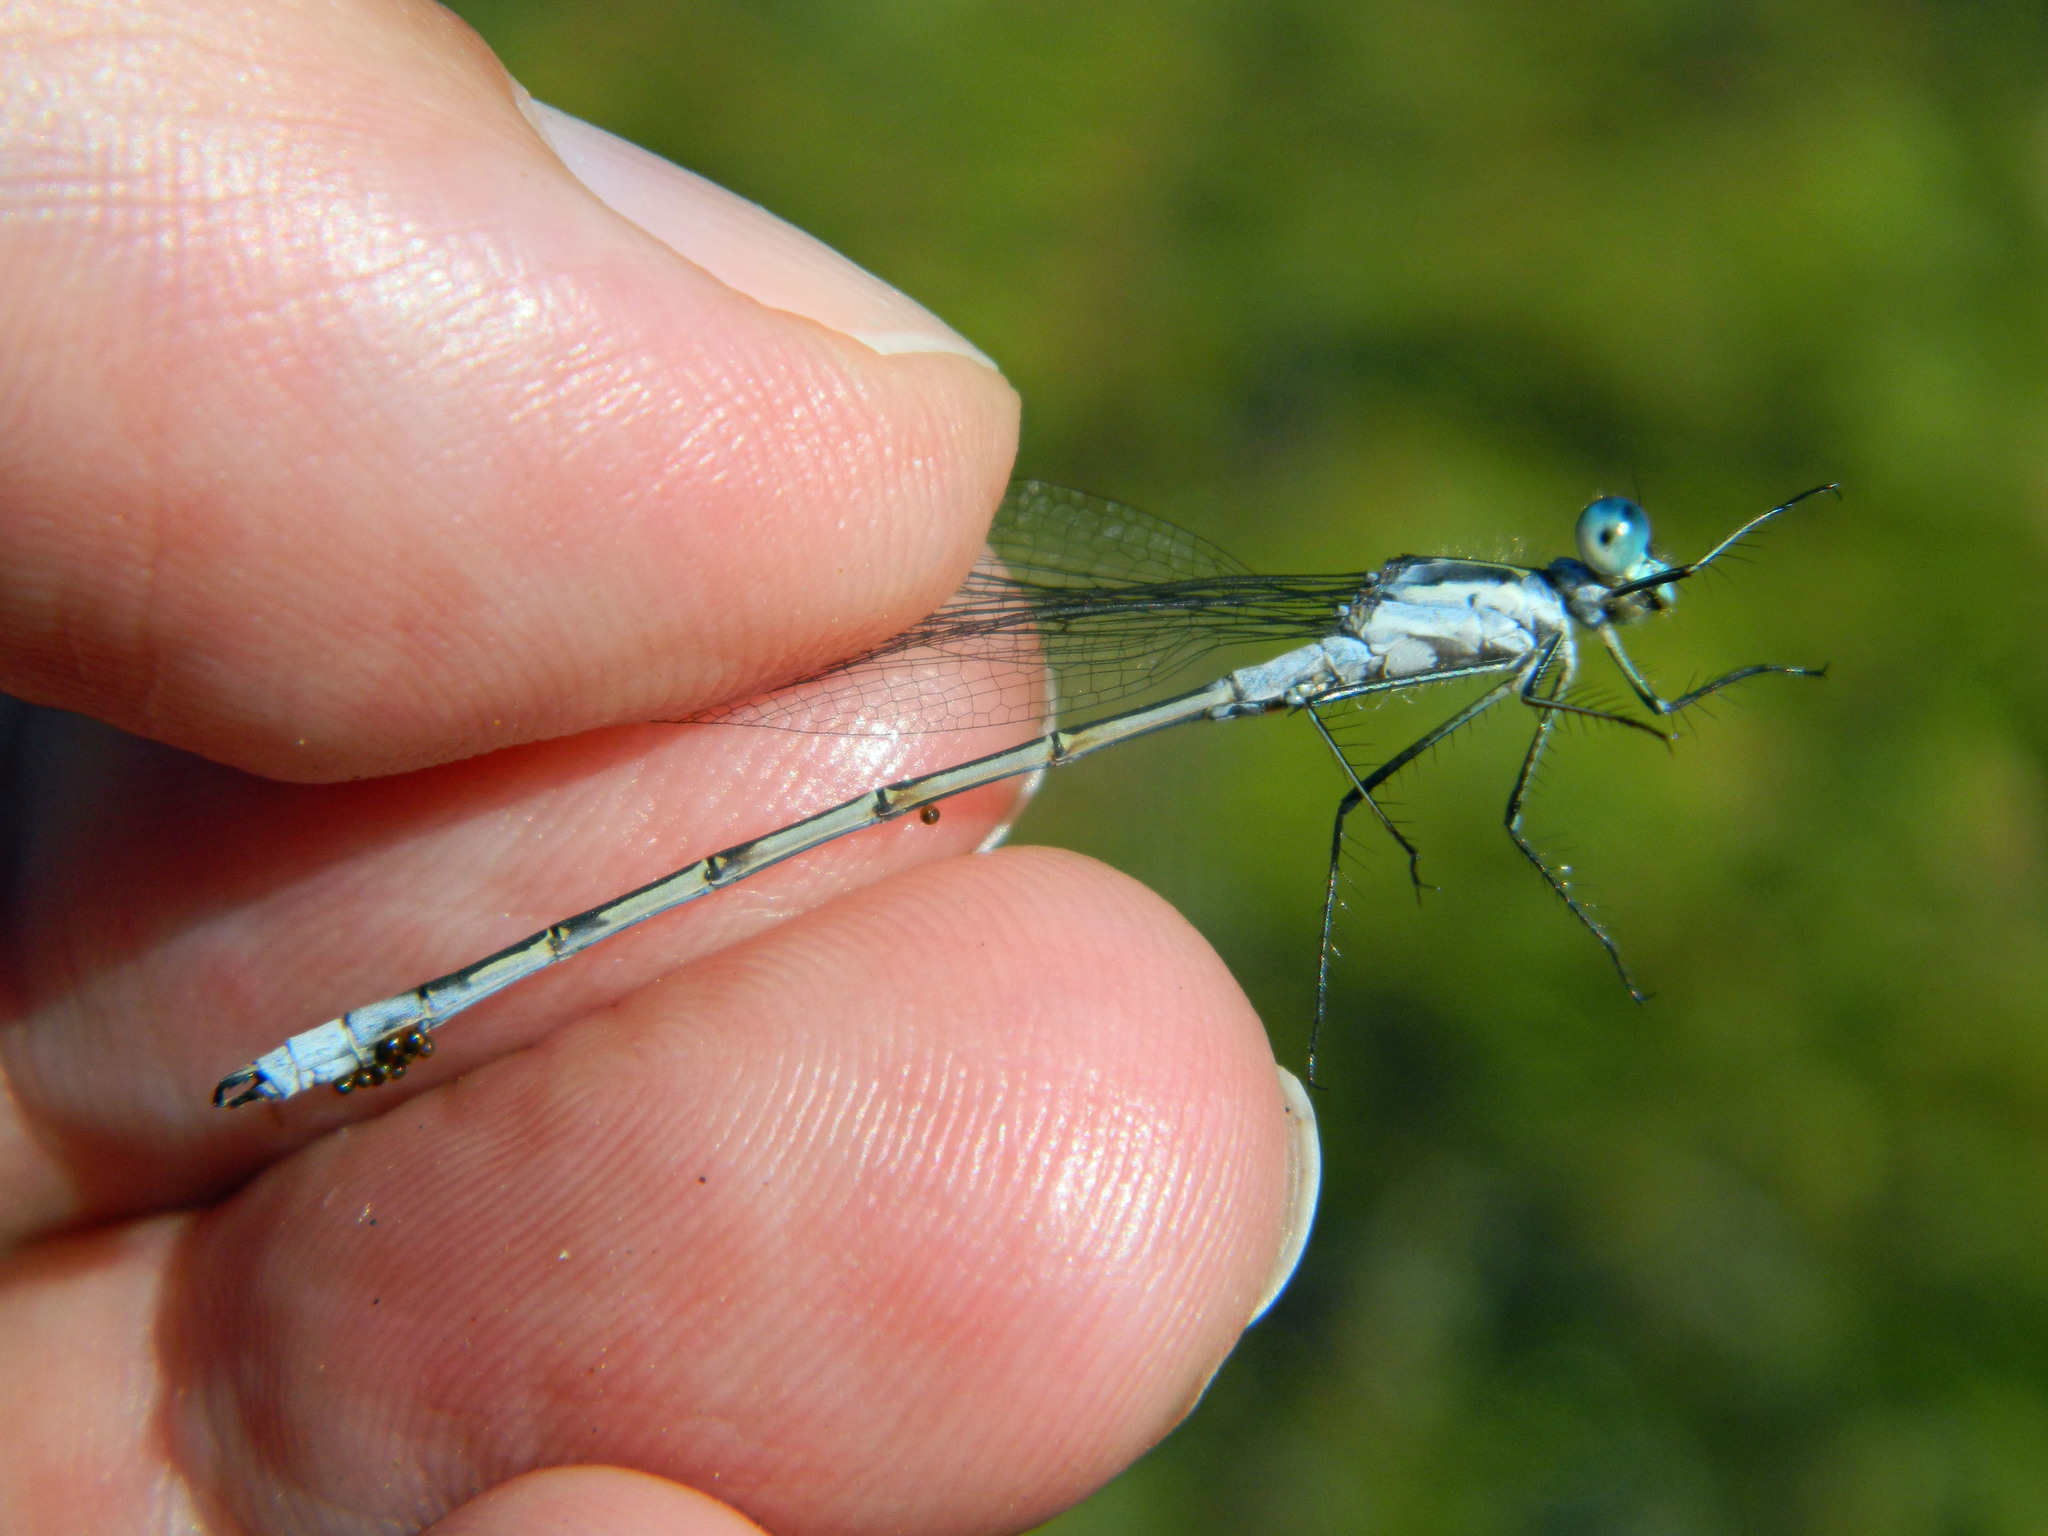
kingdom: Animalia
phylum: Arthropoda
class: Insecta
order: Odonata
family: Lestidae
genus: Lestes
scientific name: Lestes disjunctus
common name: Northern spreadwing
